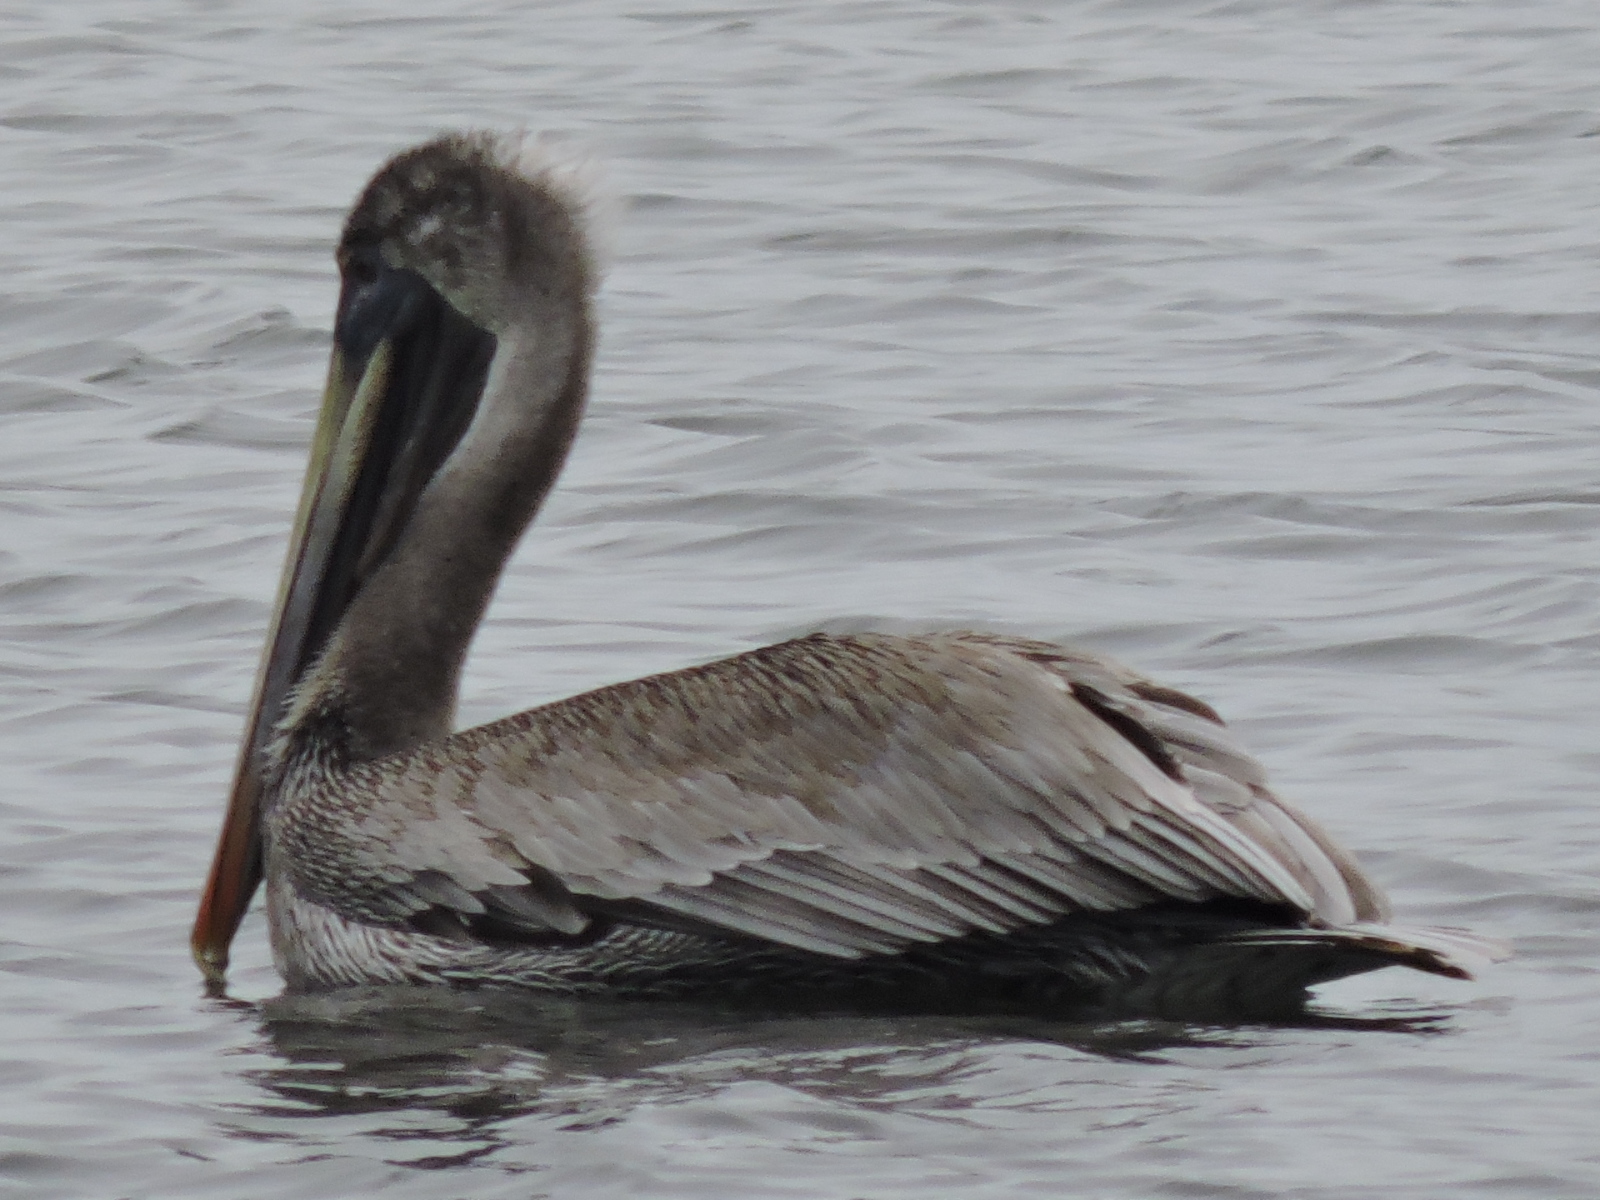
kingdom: Animalia
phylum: Chordata
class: Aves
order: Pelecaniformes
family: Pelecanidae
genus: Pelecanus
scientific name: Pelecanus occidentalis
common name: Brown pelican
